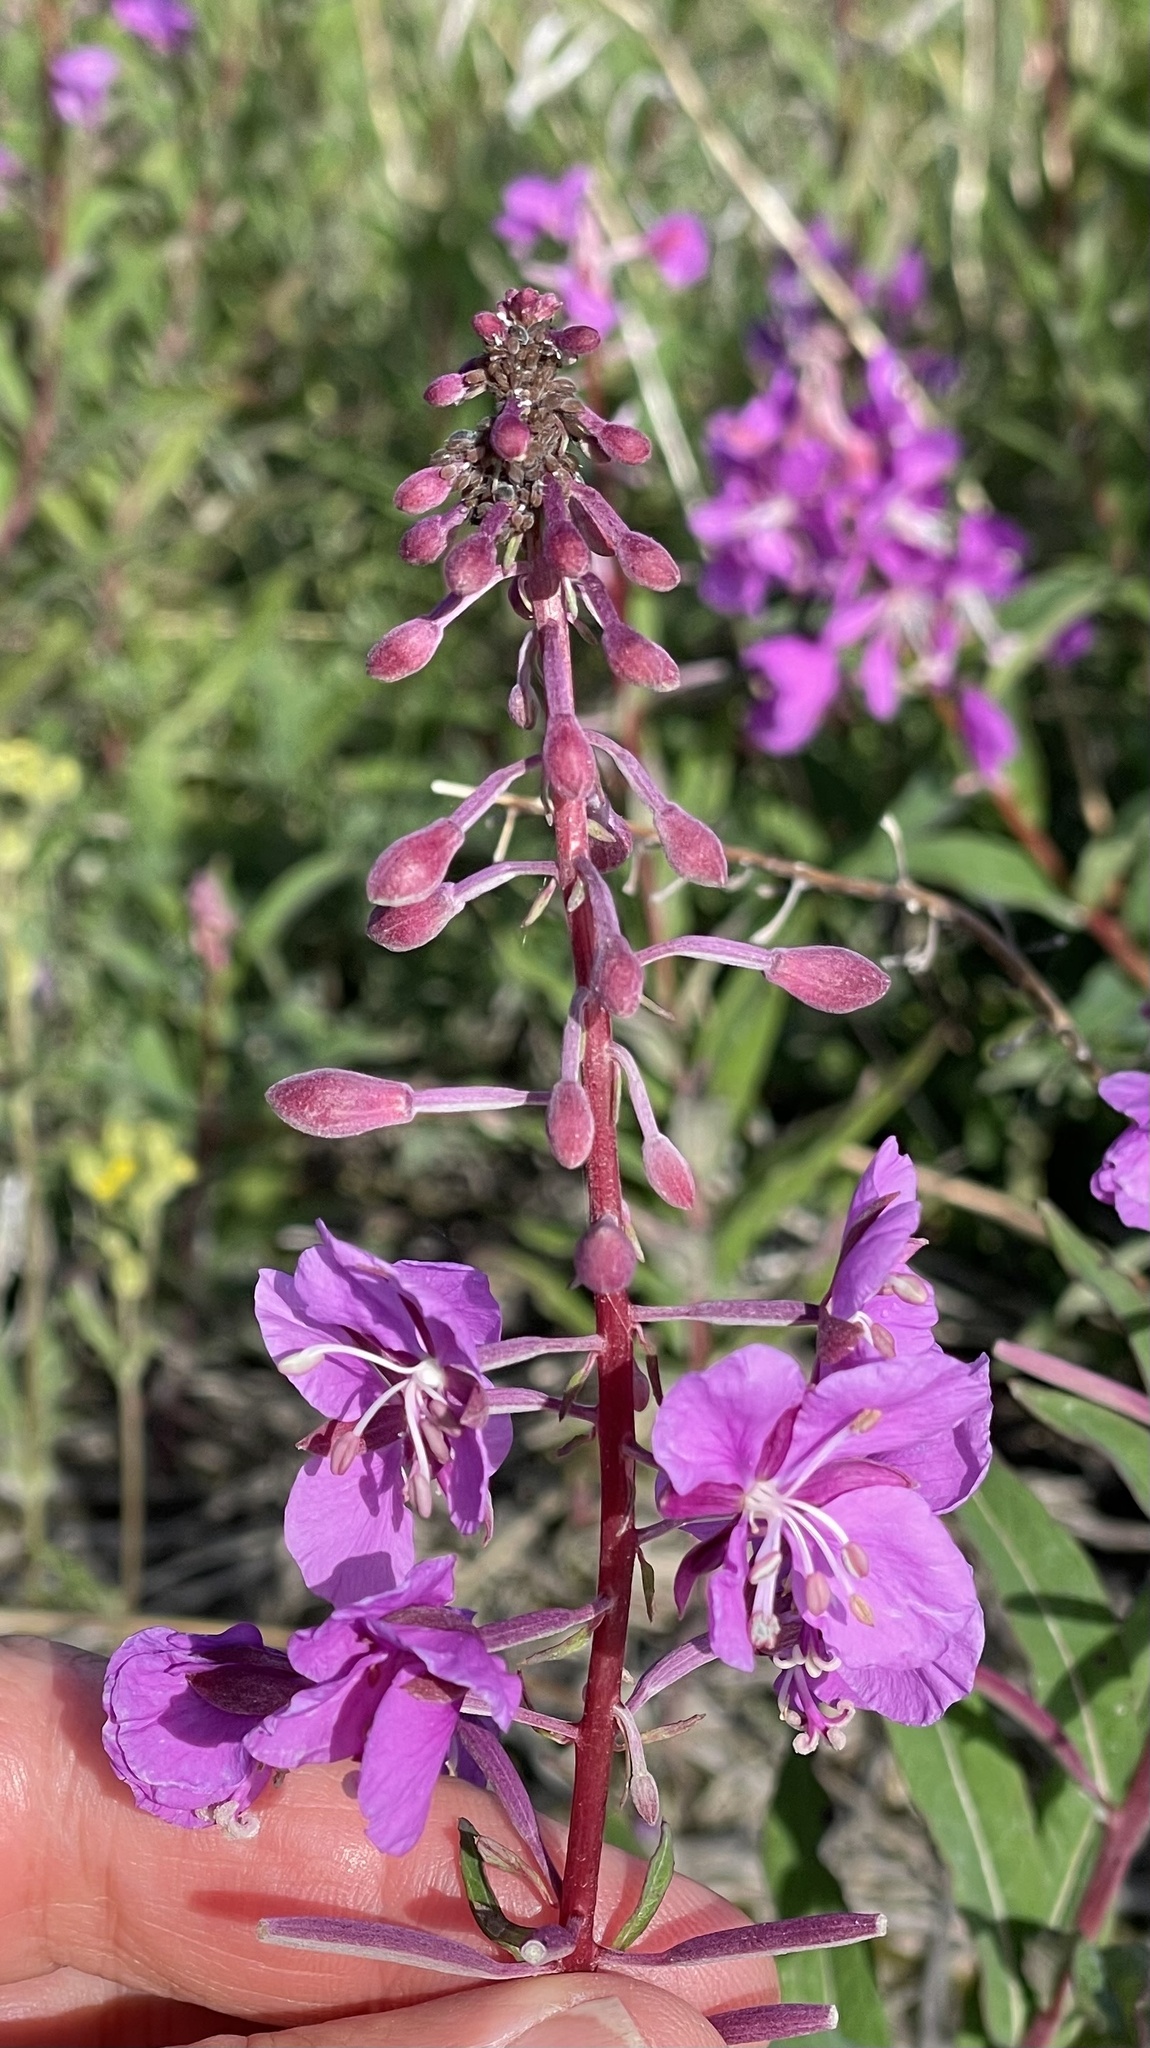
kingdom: Plantae
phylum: Tracheophyta
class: Magnoliopsida
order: Myrtales
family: Onagraceae
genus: Chamaenerion
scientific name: Chamaenerion angustifolium
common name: Fireweed
